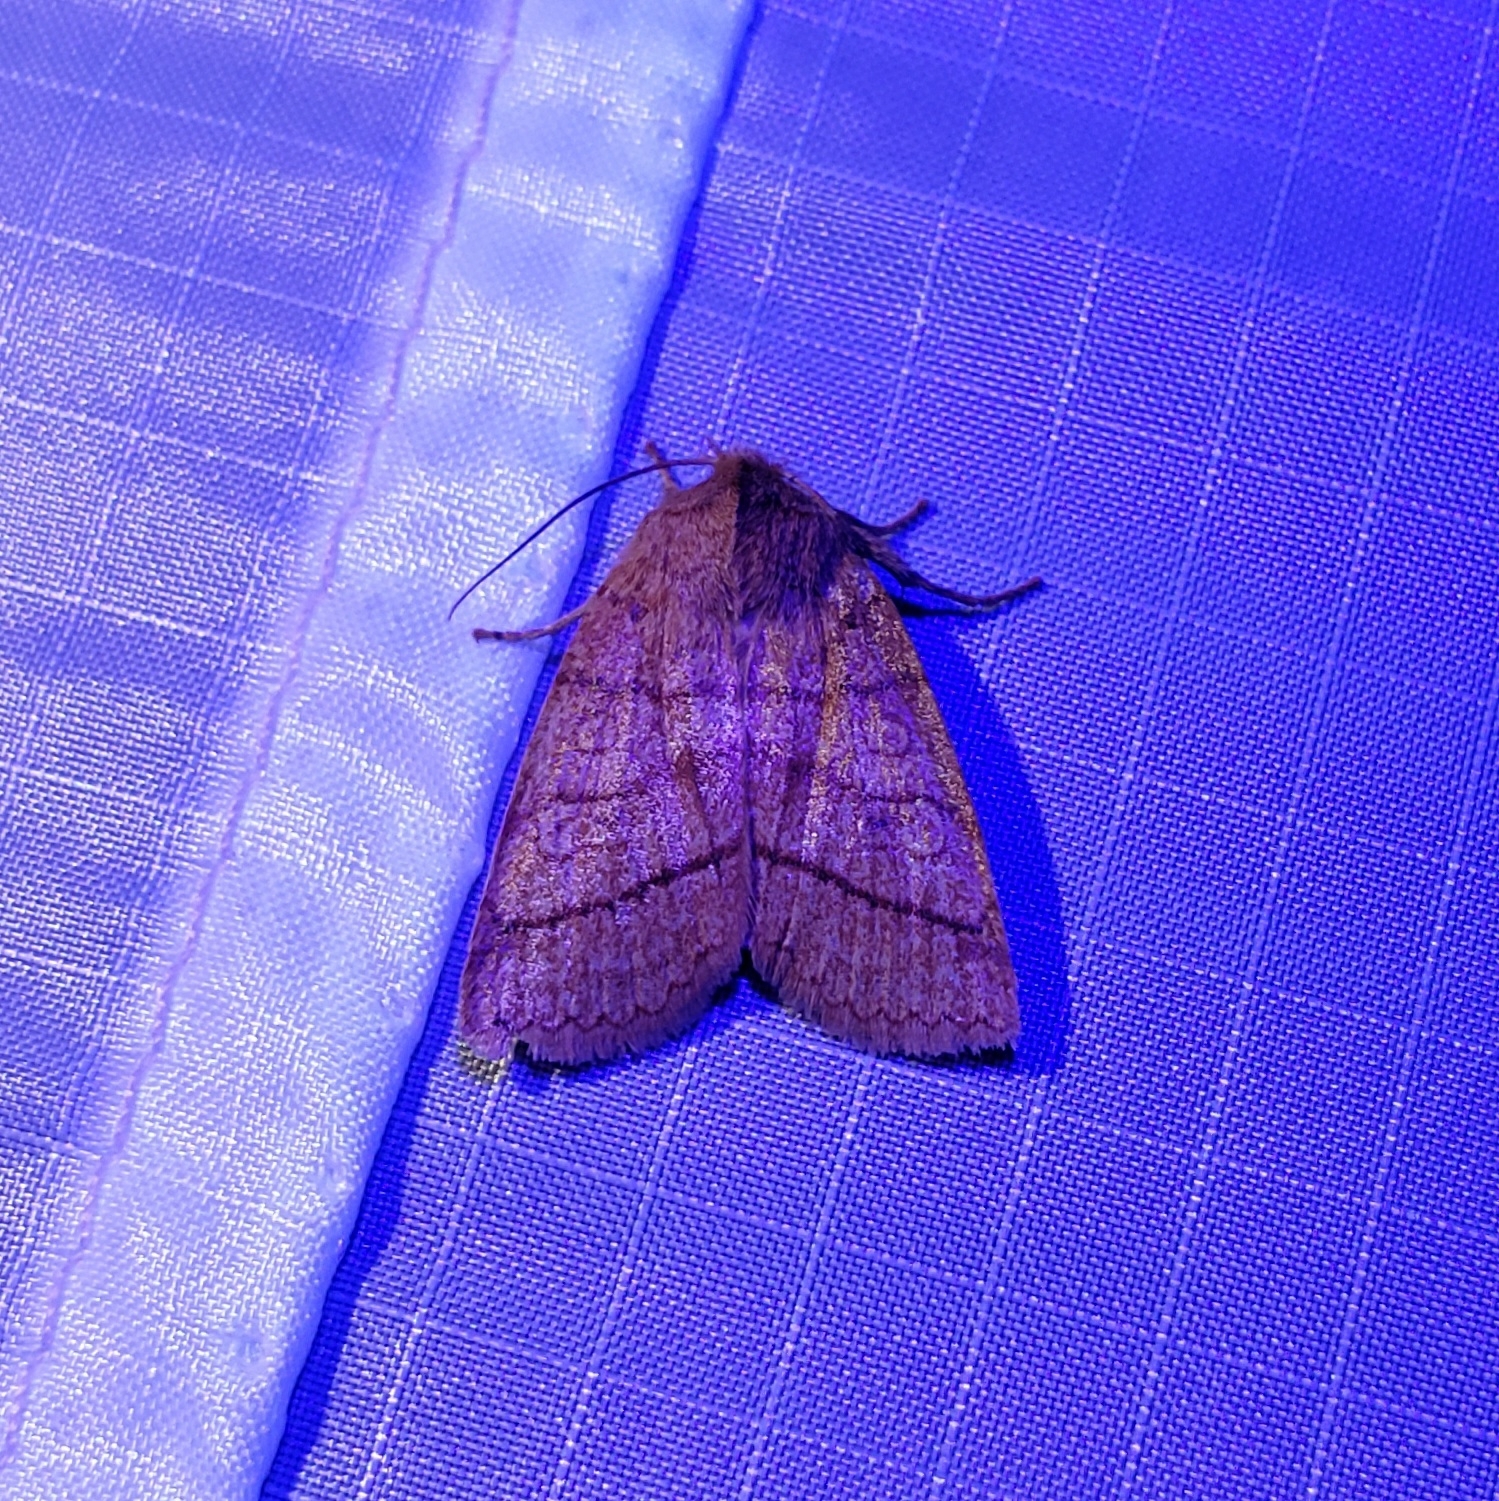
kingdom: Animalia
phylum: Arthropoda
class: Insecta
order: Lepidoptera
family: Noctuidae
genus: Pyreferra
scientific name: Pyreferra hesperidago
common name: Mustard sallow
